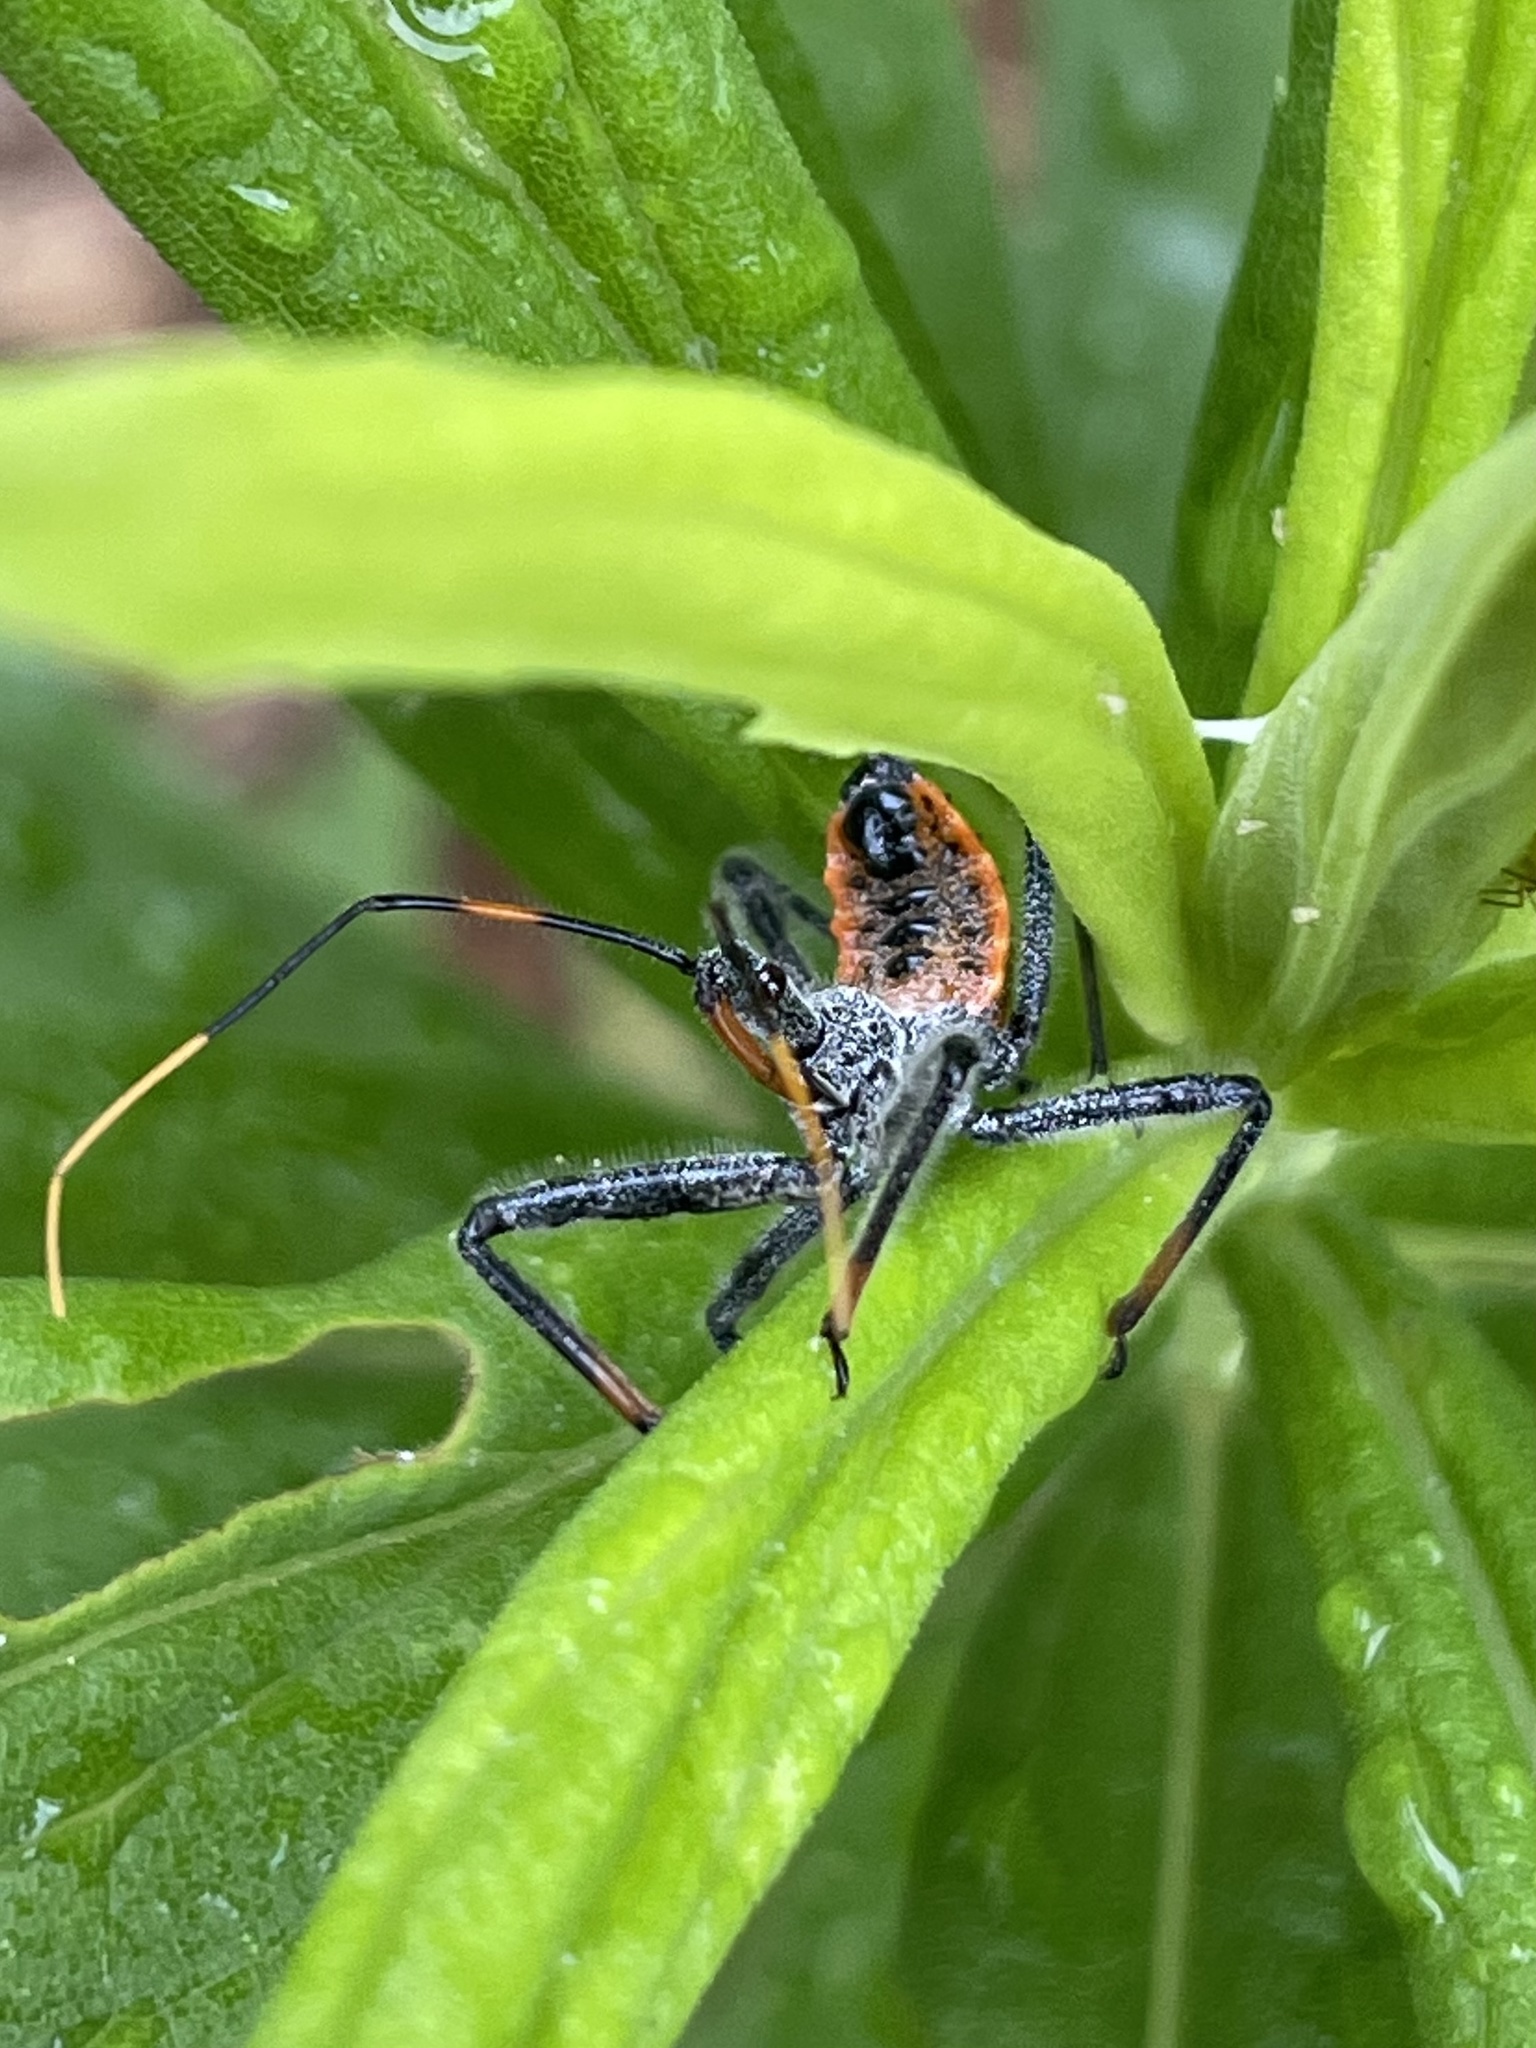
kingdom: Animalia
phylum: Arthropoda
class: Insecta
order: Hemiptera
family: Reduviidae
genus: Arilus
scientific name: Arilus cristatus
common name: North american wheel bug
